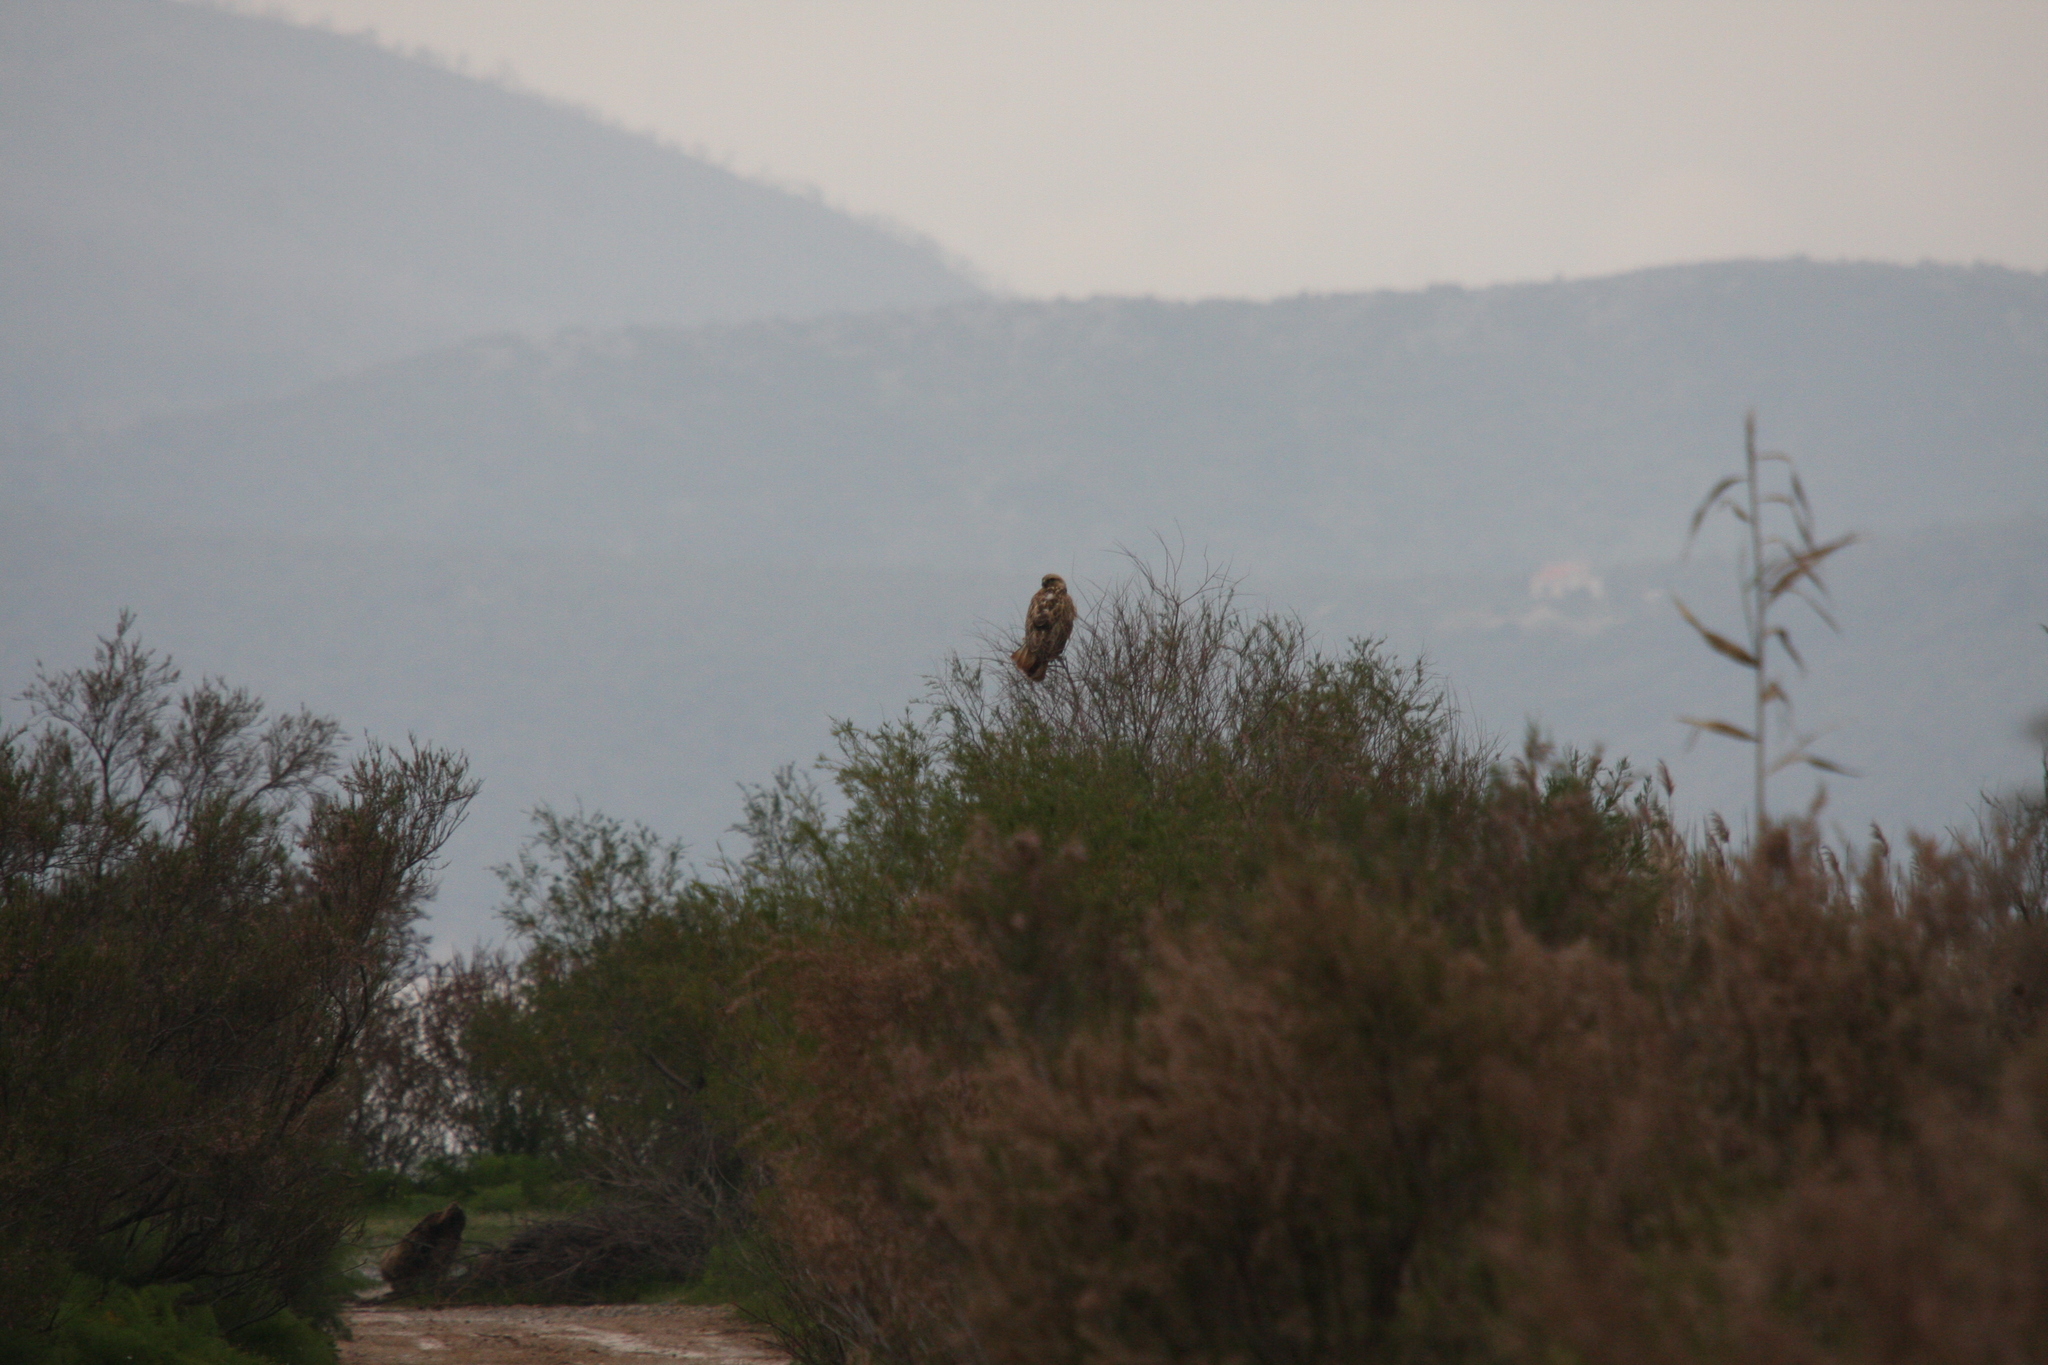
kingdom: Animalia
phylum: Chordata
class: Aves
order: Accipitriformes
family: Accipitridae
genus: Buteo
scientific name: Buteo rufinus
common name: Long-legged buzzard
